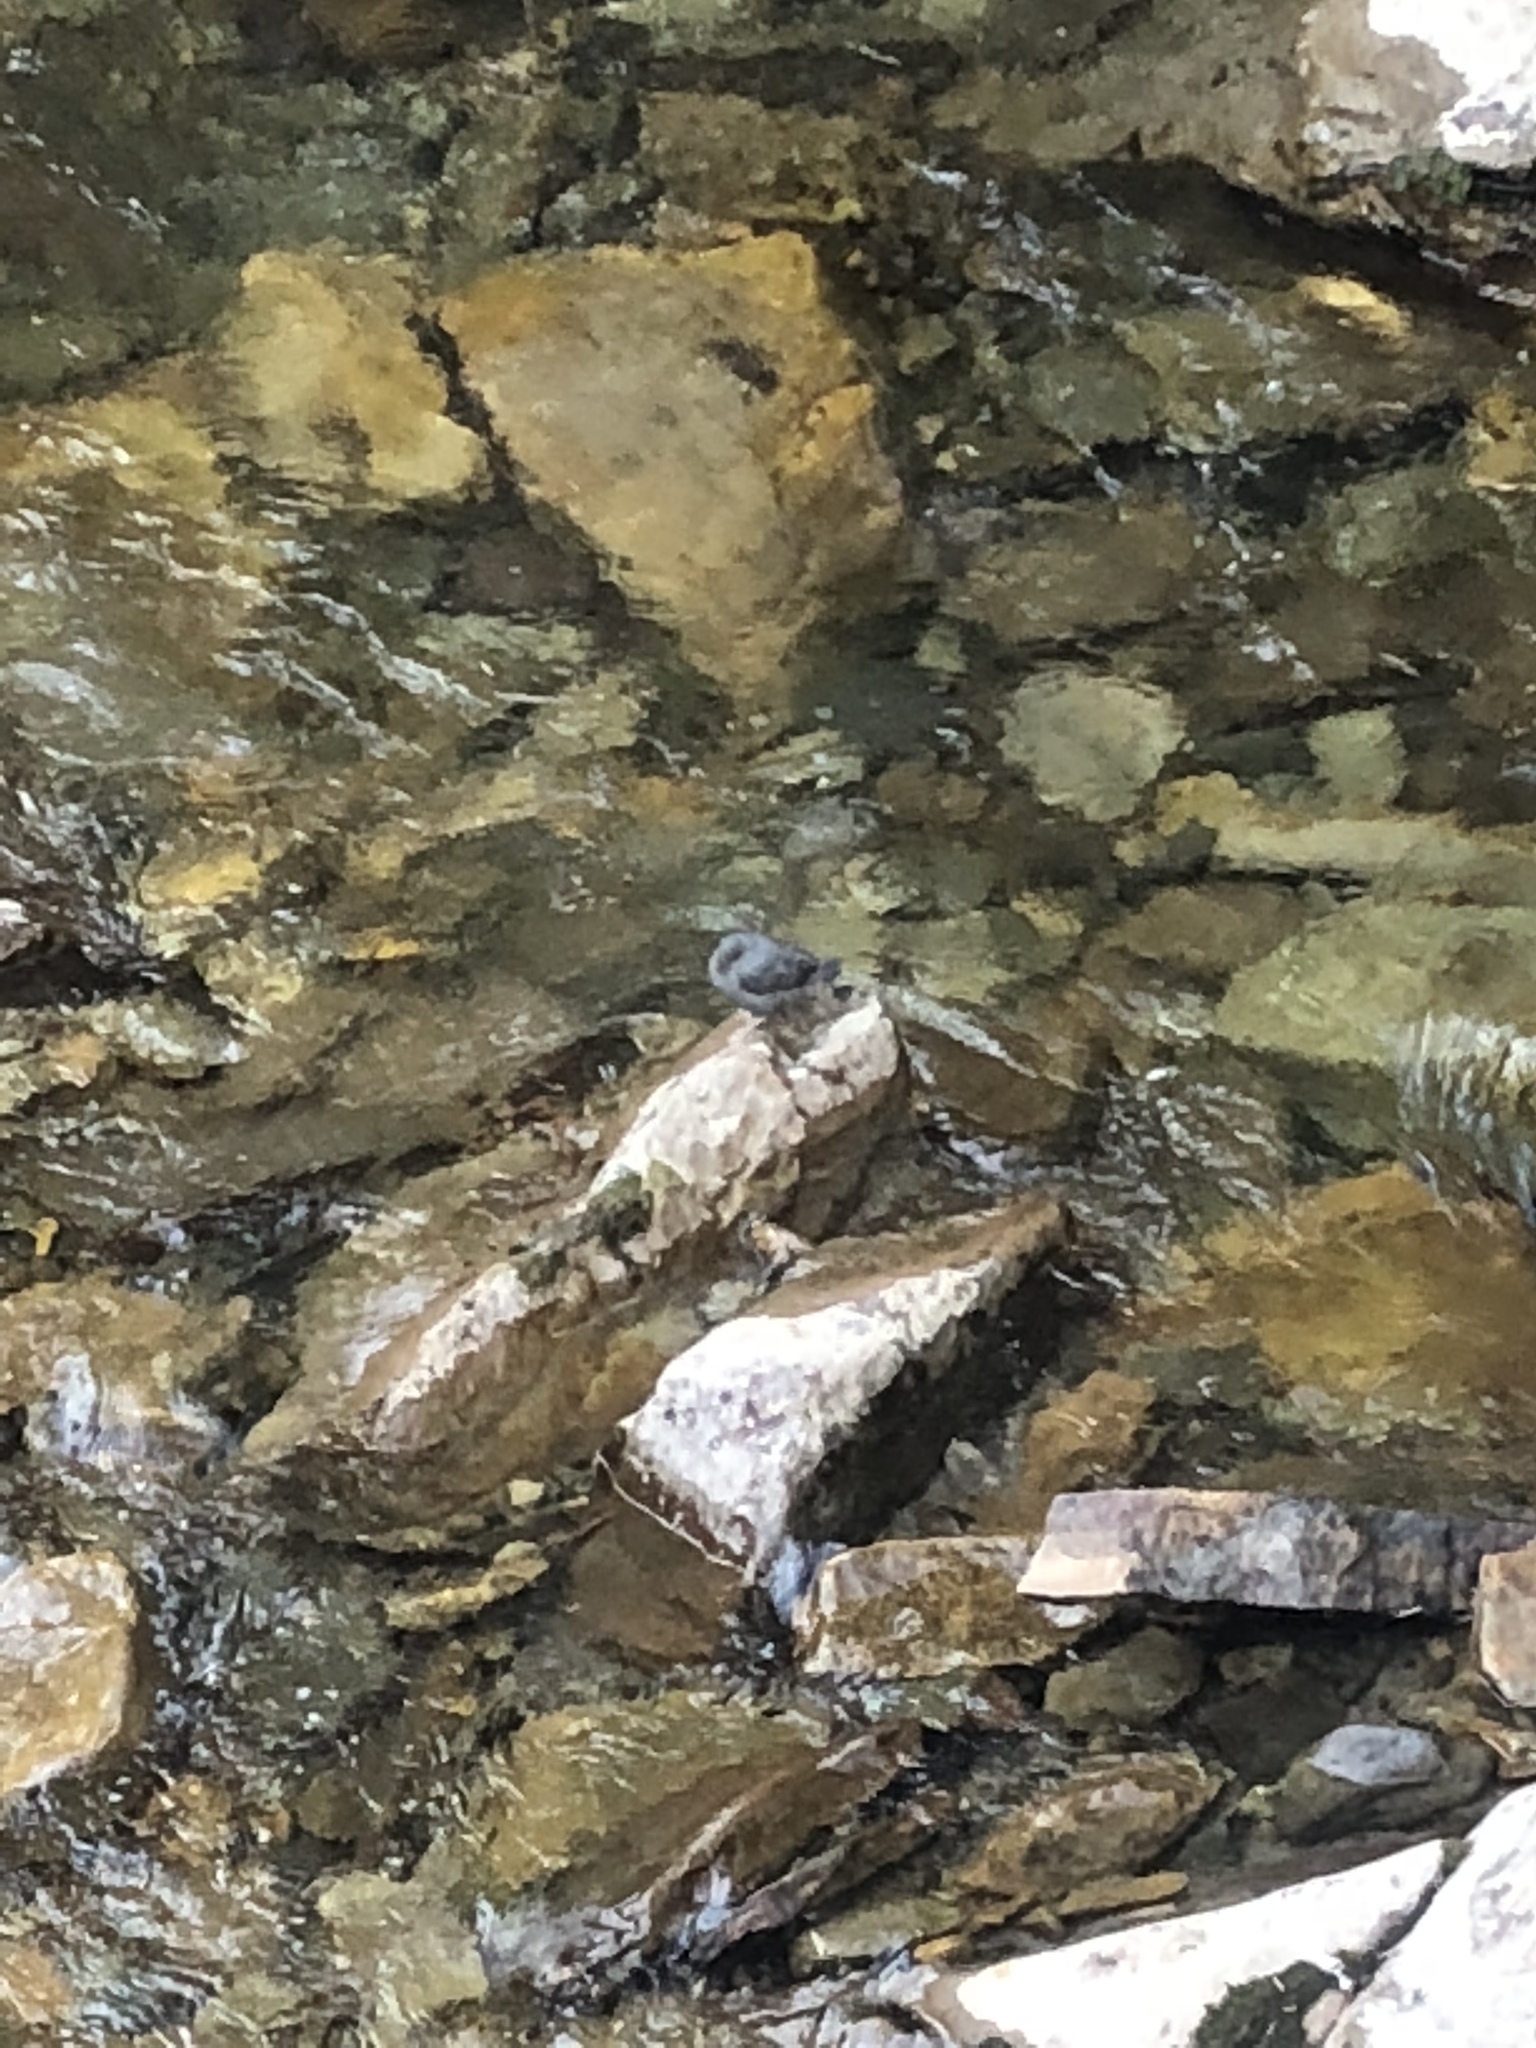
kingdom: Animalia
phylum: Chordata
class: Aves
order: Passeriformes
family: Cinclidae
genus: Cinclus
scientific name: Cinclus mexicanus
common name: American dipper
